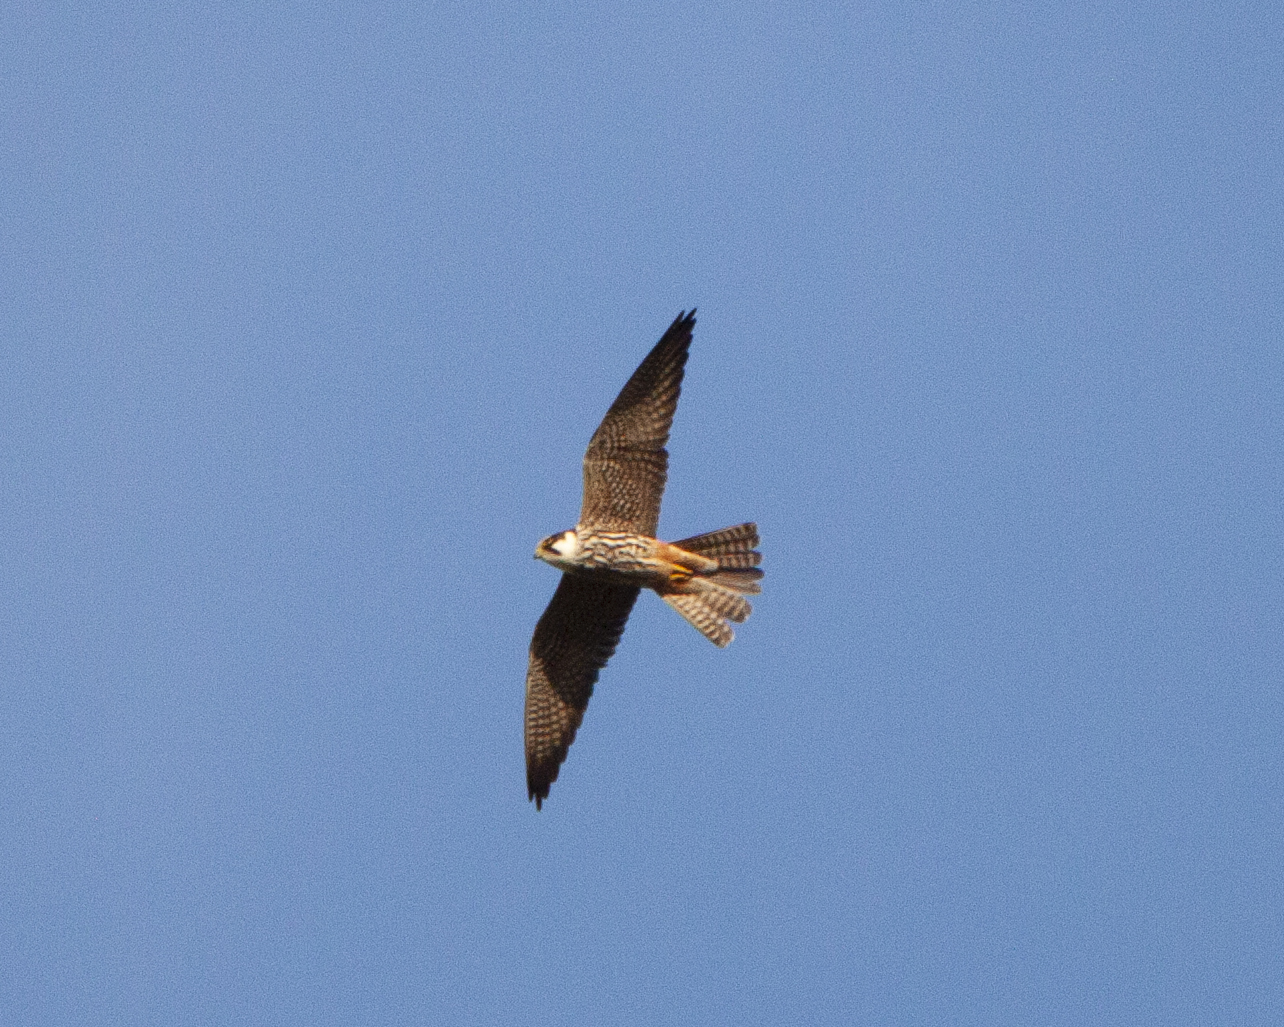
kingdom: Animalia
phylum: Chordata
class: Aves
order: Falconiformes
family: Falconidae
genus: Falco
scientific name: Falco subbuteo
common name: Eurasian hobby
